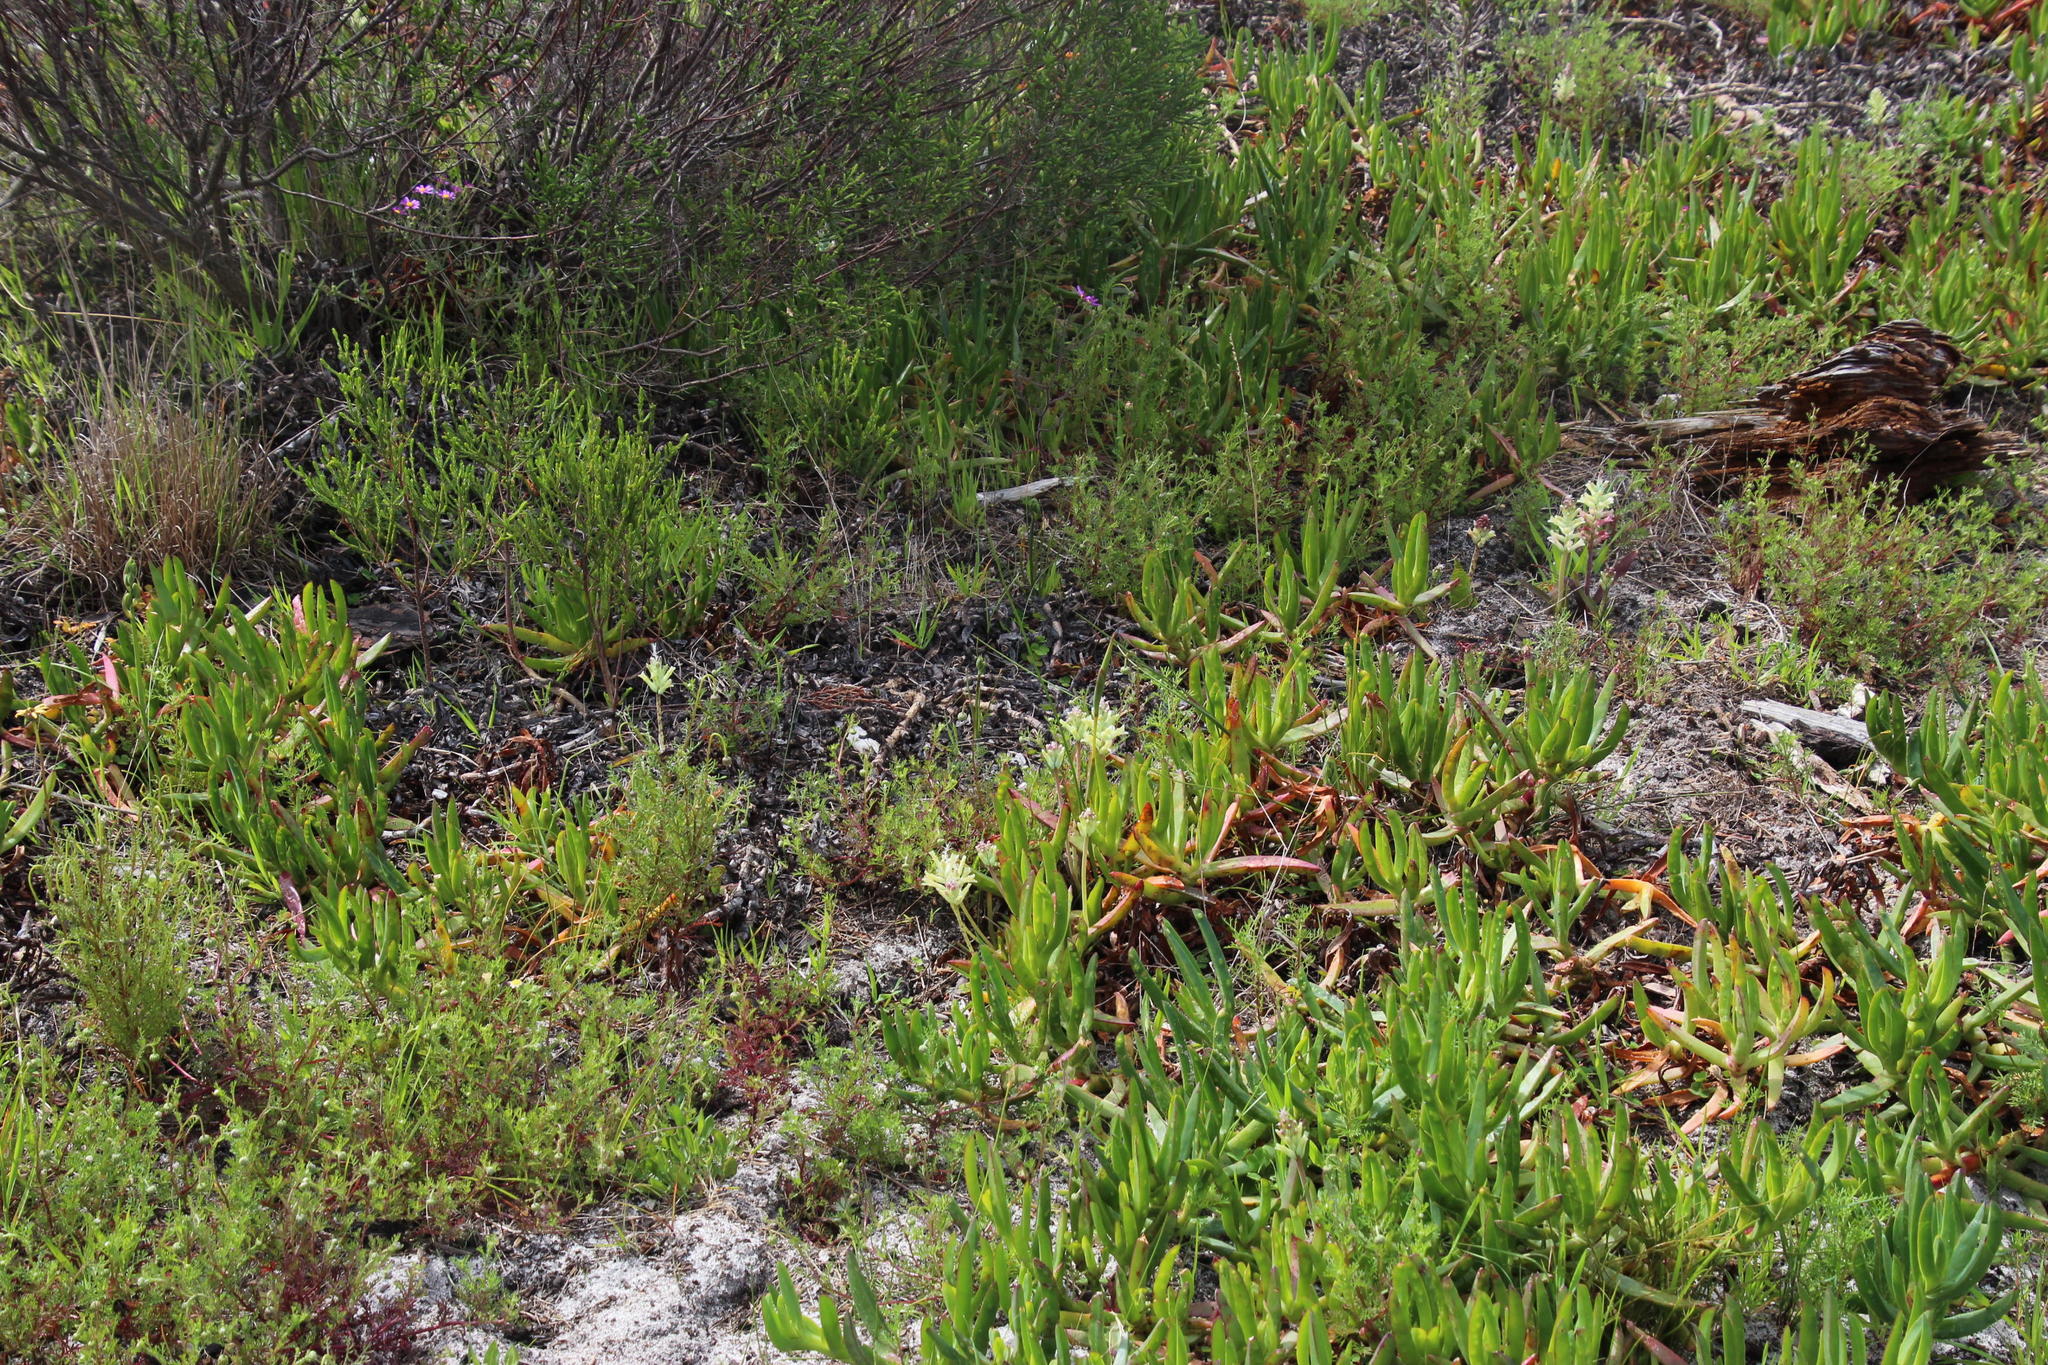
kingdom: Plantae
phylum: Tracheophyta
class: Liliopsida
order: Asparagales
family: Asparagaceae
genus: Lachenalia
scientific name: Lachenalia orchioides
